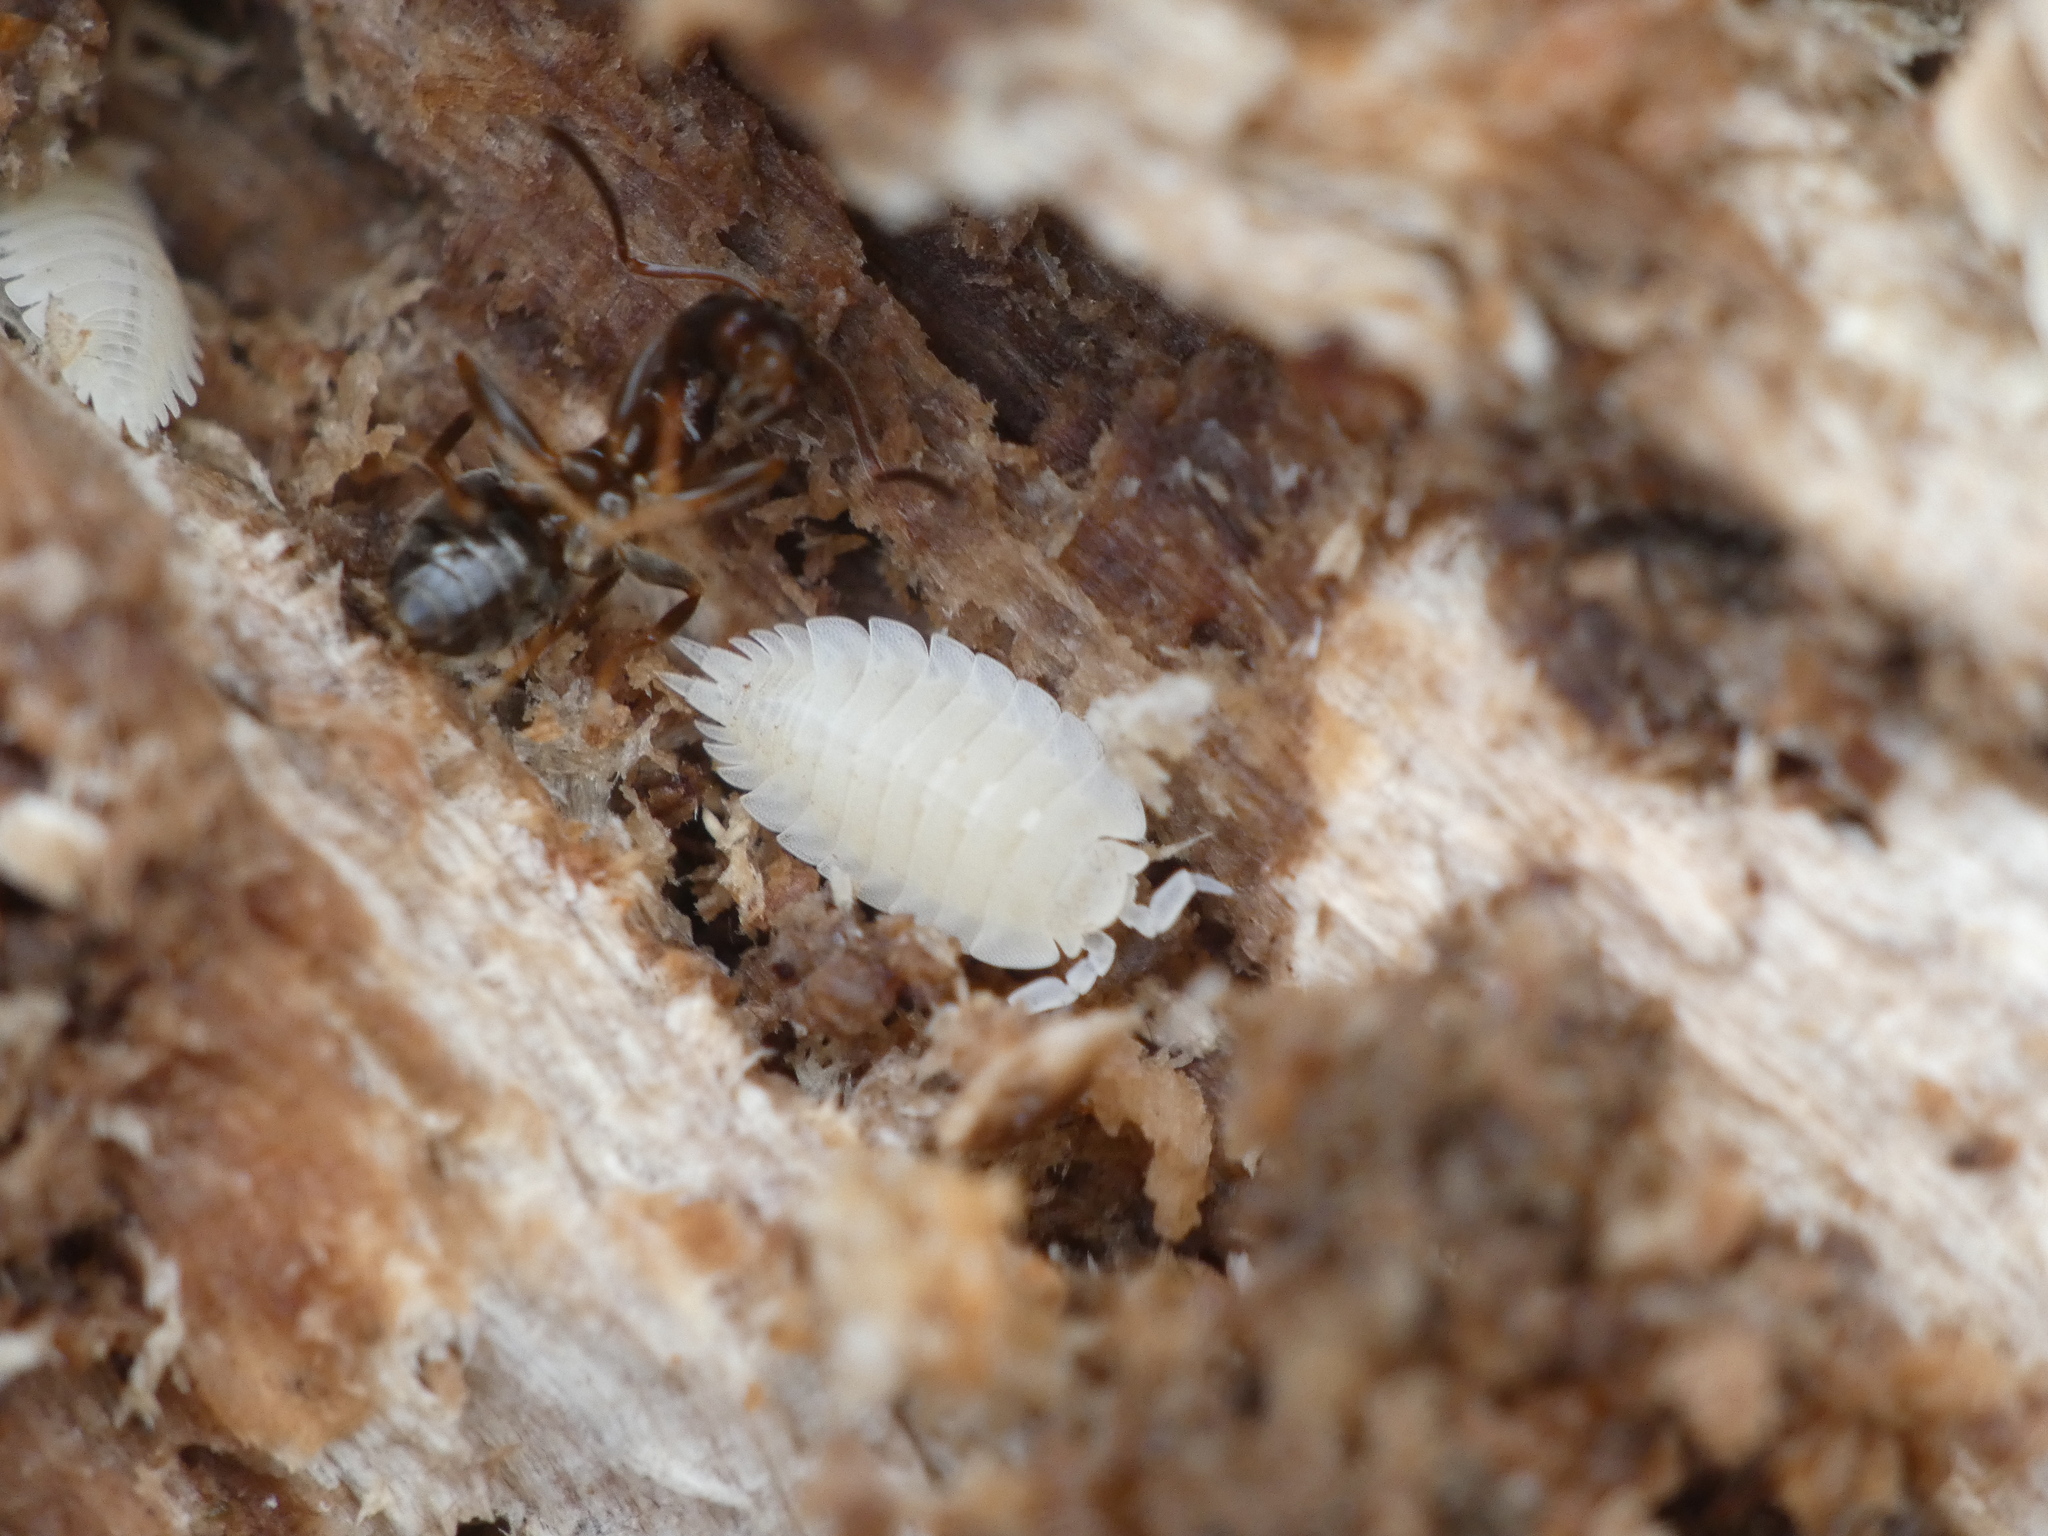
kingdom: Animalia
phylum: Arthropoda
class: Malacostraca
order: Isopoda
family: Platyarthridae
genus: Platyarthrus
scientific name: Platyarthrus hoffmannseggii
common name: Ant woodlouse
